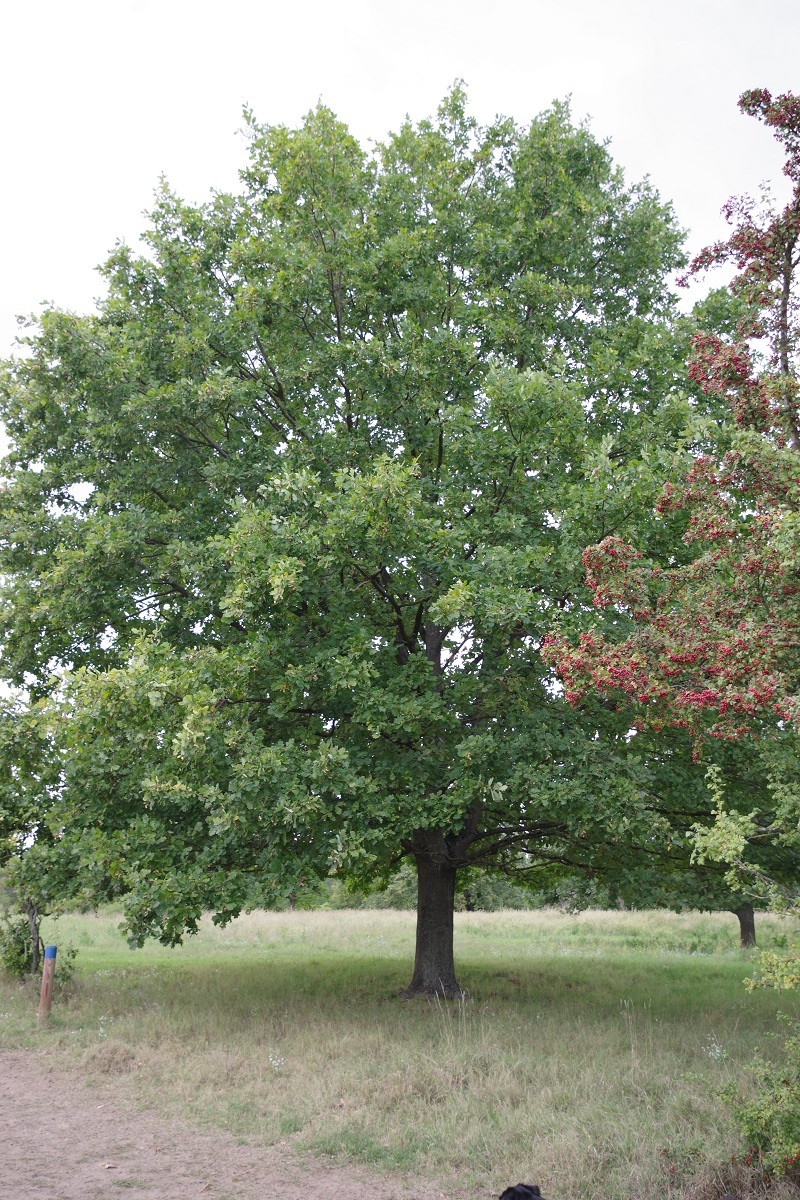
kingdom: Plantae
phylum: Tracheophyta
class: Magnoliopsida
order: Fagales
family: Fagaceae
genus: Quercus
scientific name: Quercus robur
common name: Pedunculate oak
